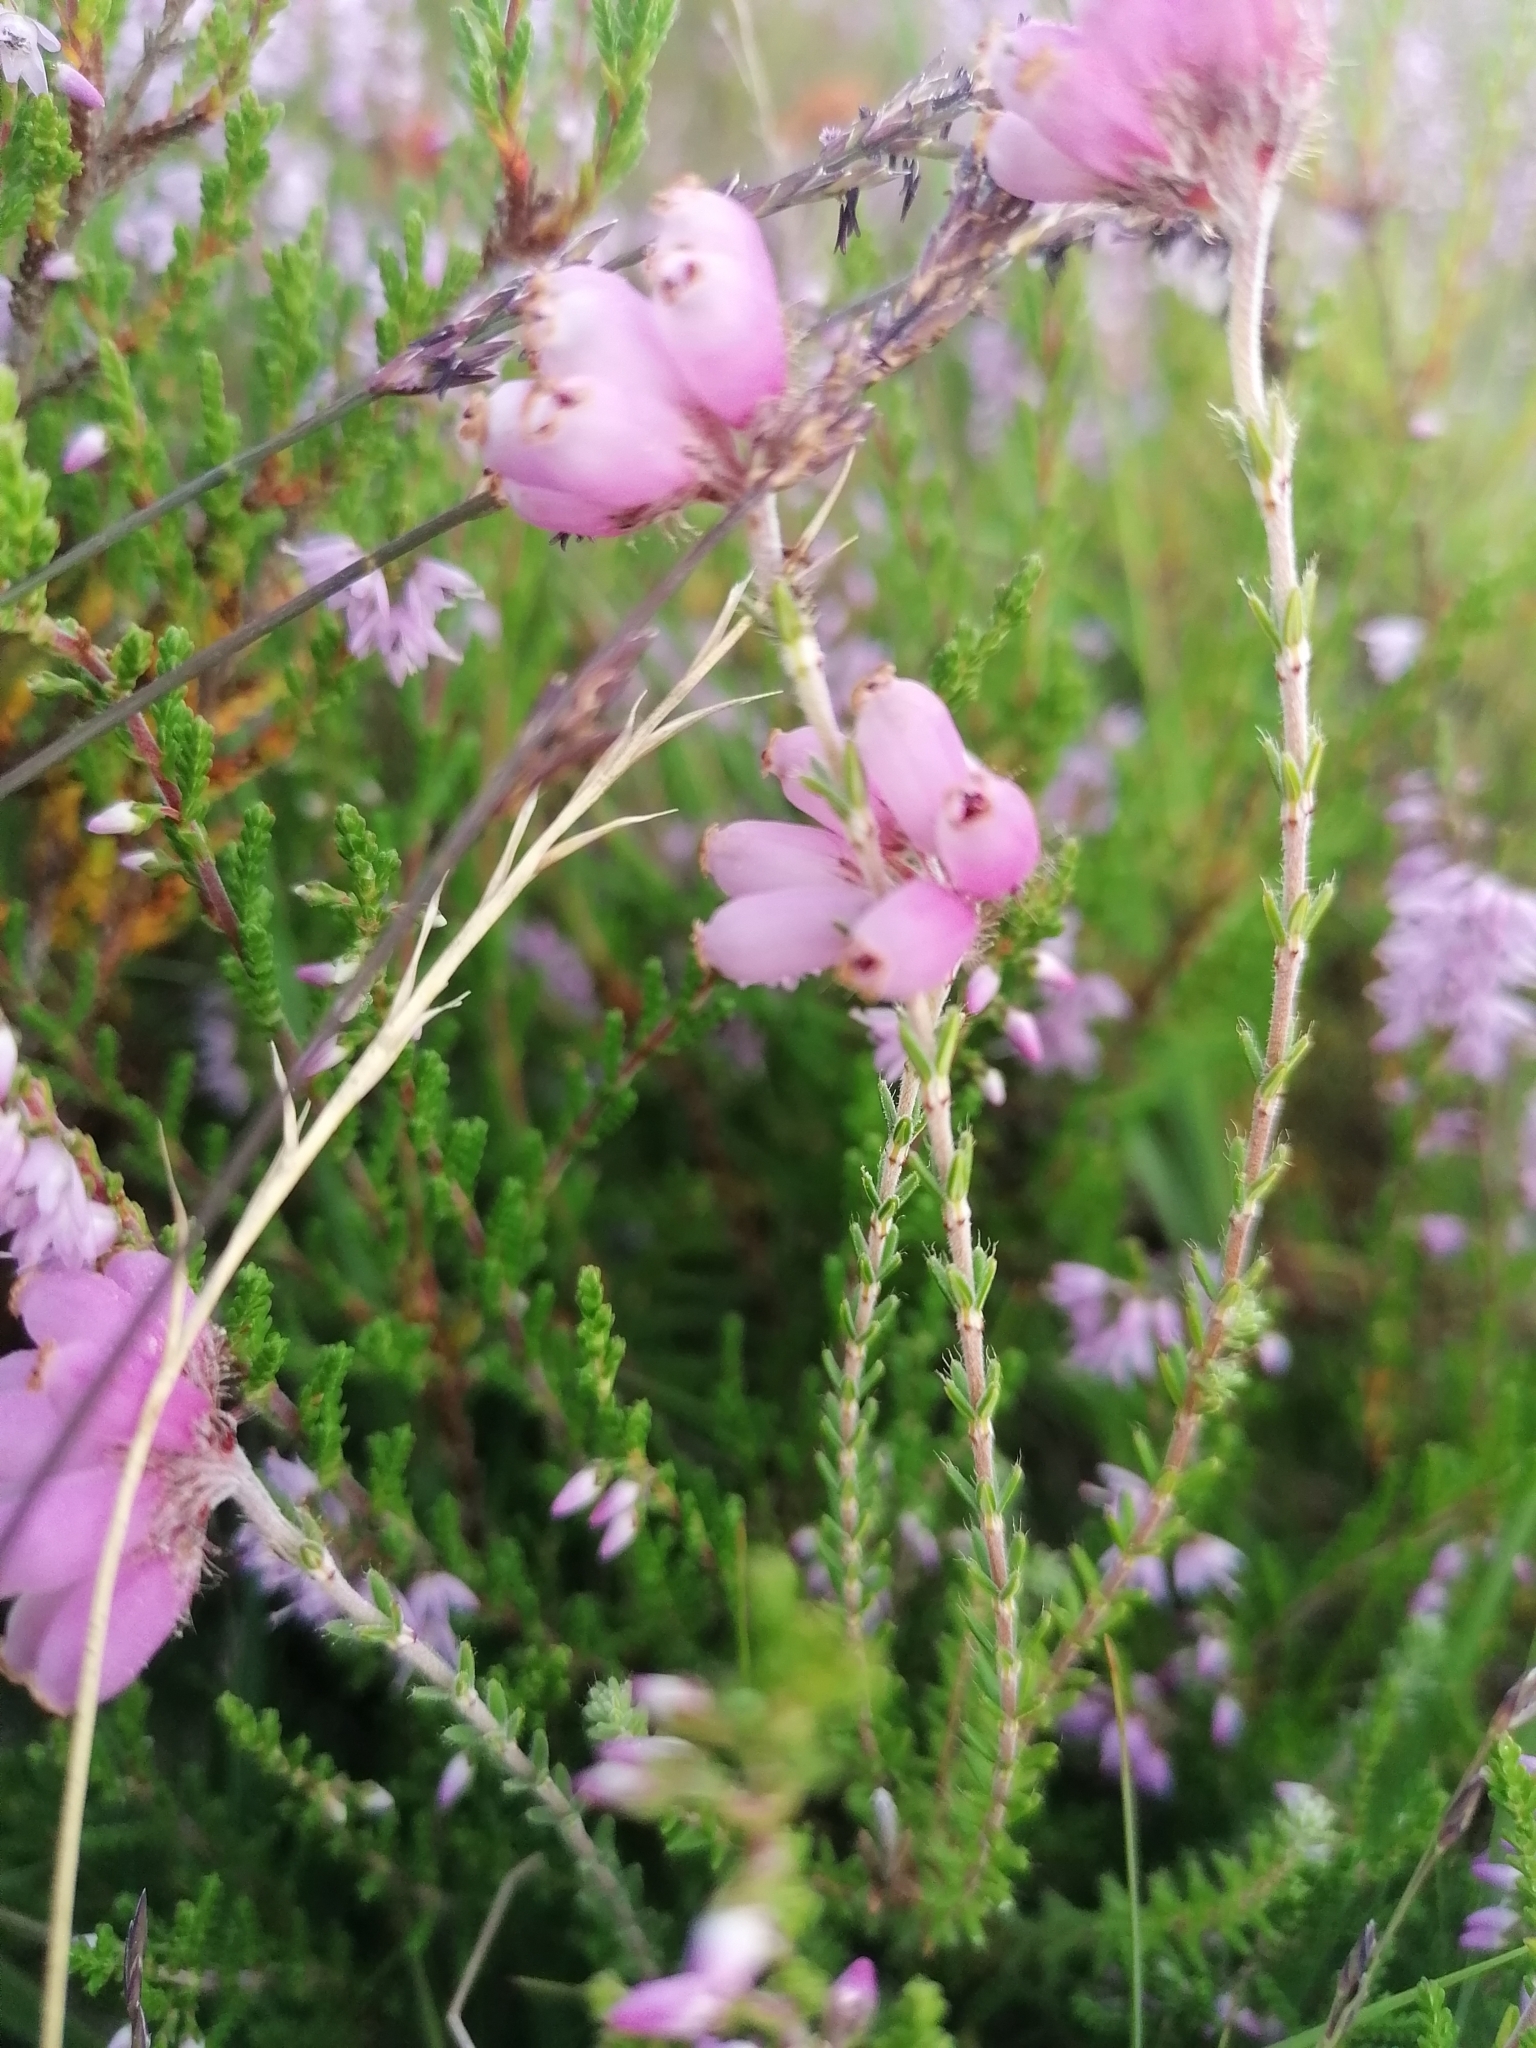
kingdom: Plantae
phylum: Tracheophyta
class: Magnoliopsida
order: Ericales
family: Ericaceae
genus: Erica
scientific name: Erica tetralix
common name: Cross-leaved heath
